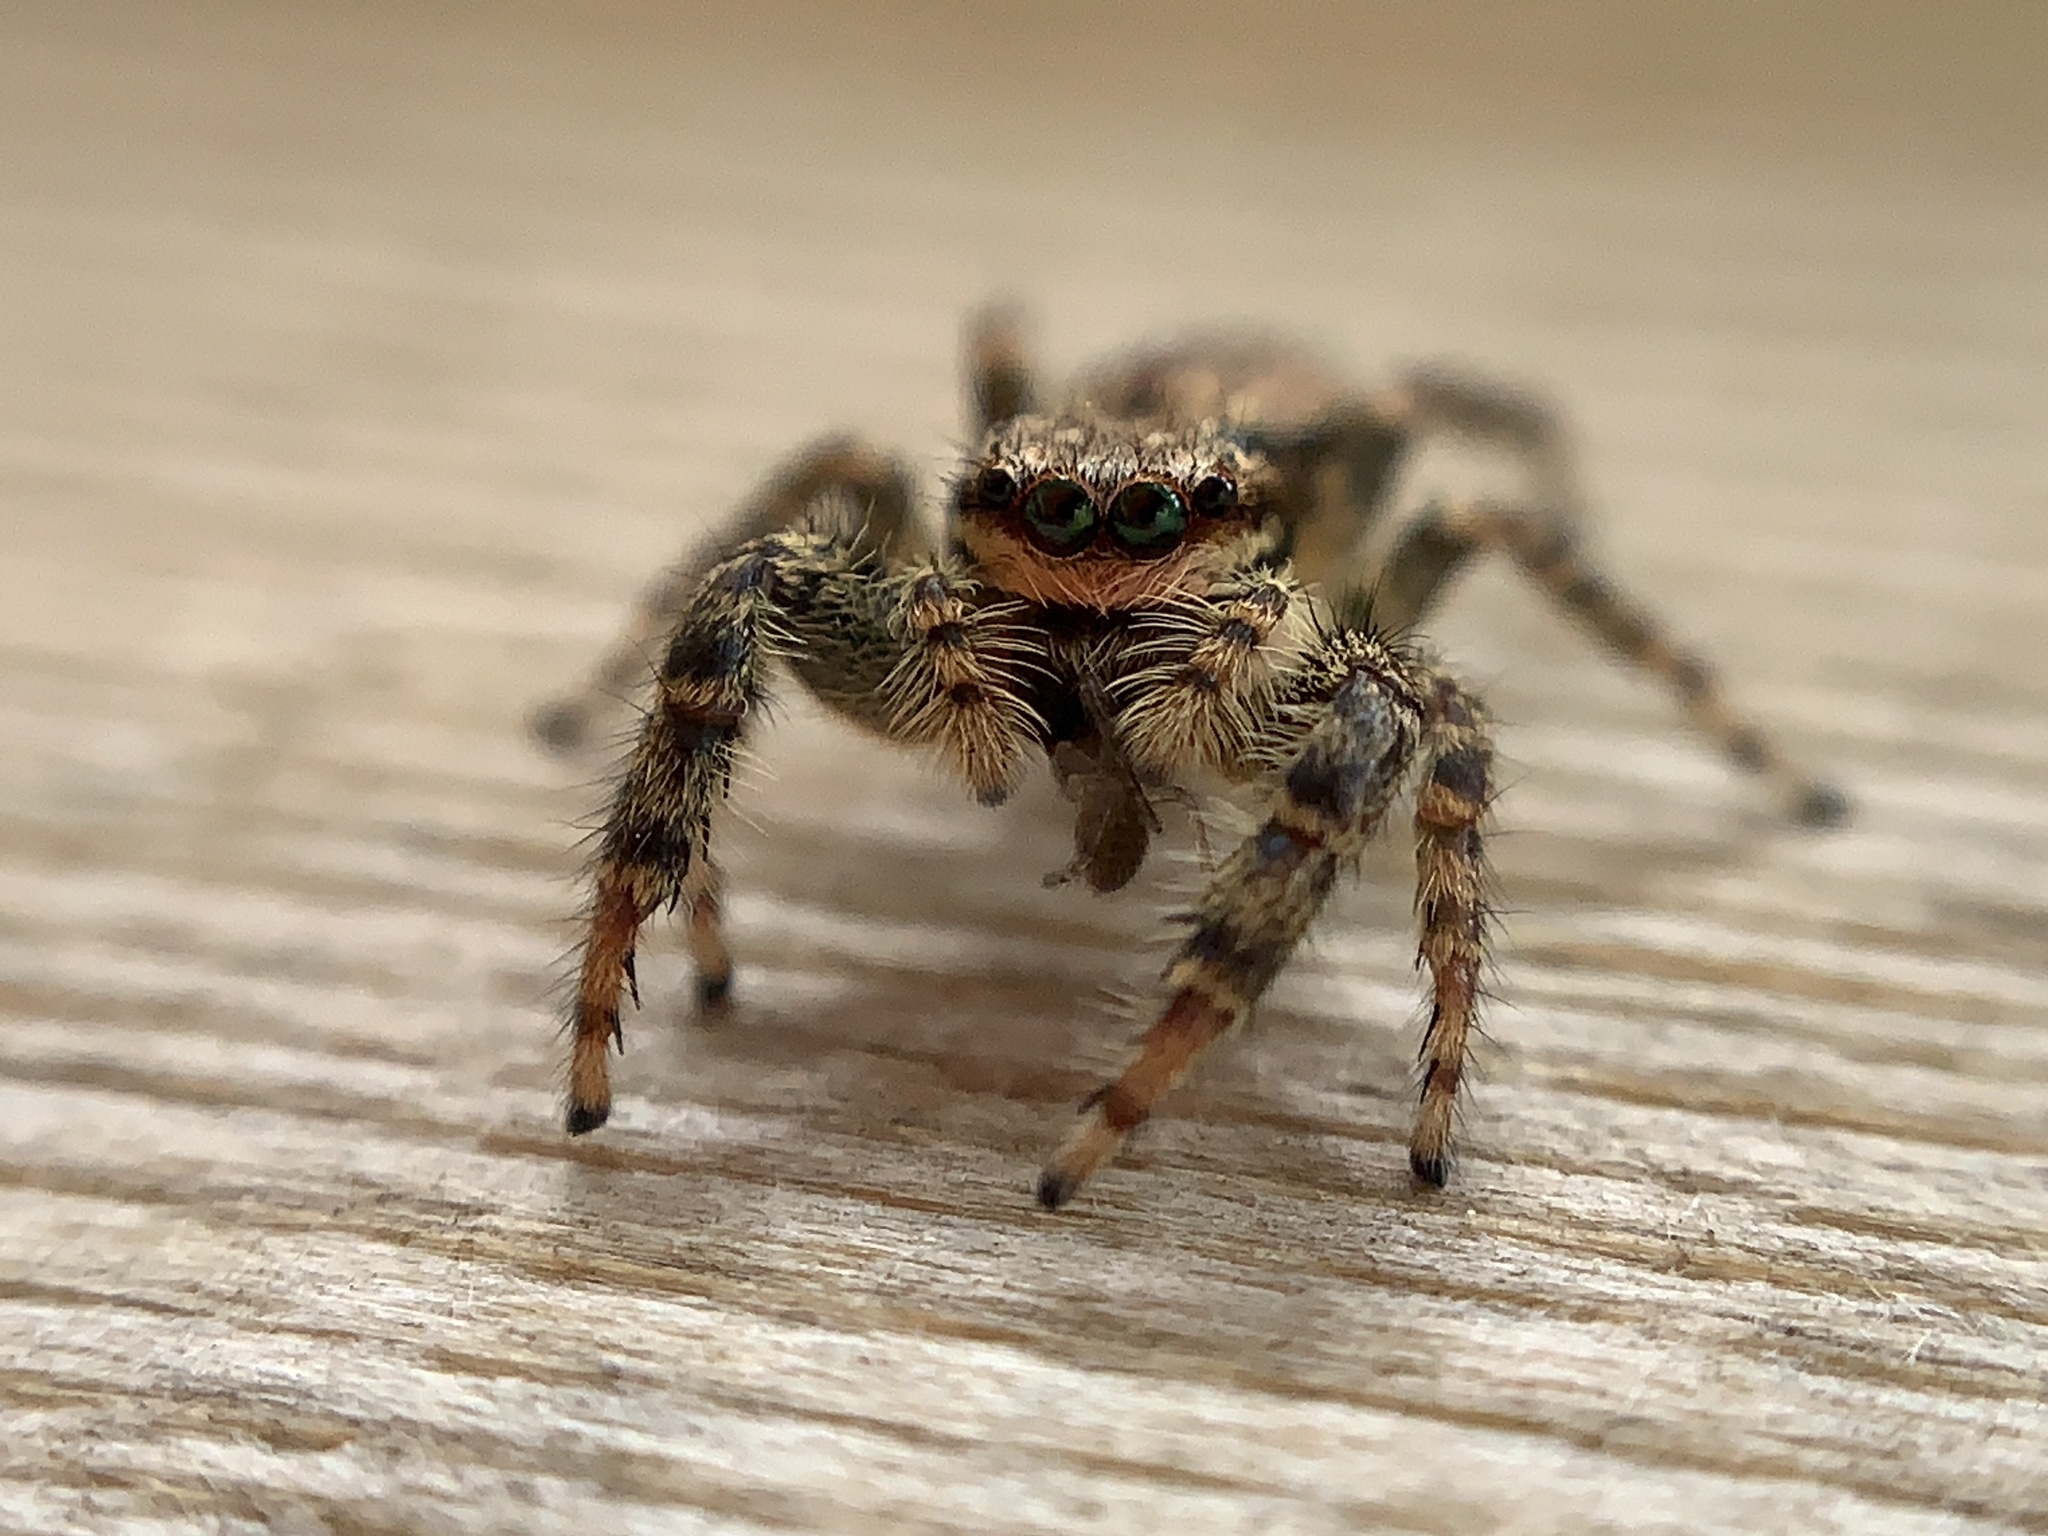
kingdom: Animalia
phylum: Arthropoda
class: Arachnida
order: Araneae
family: Salticidae
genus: Marpissa
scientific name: Marpissa muscosa
